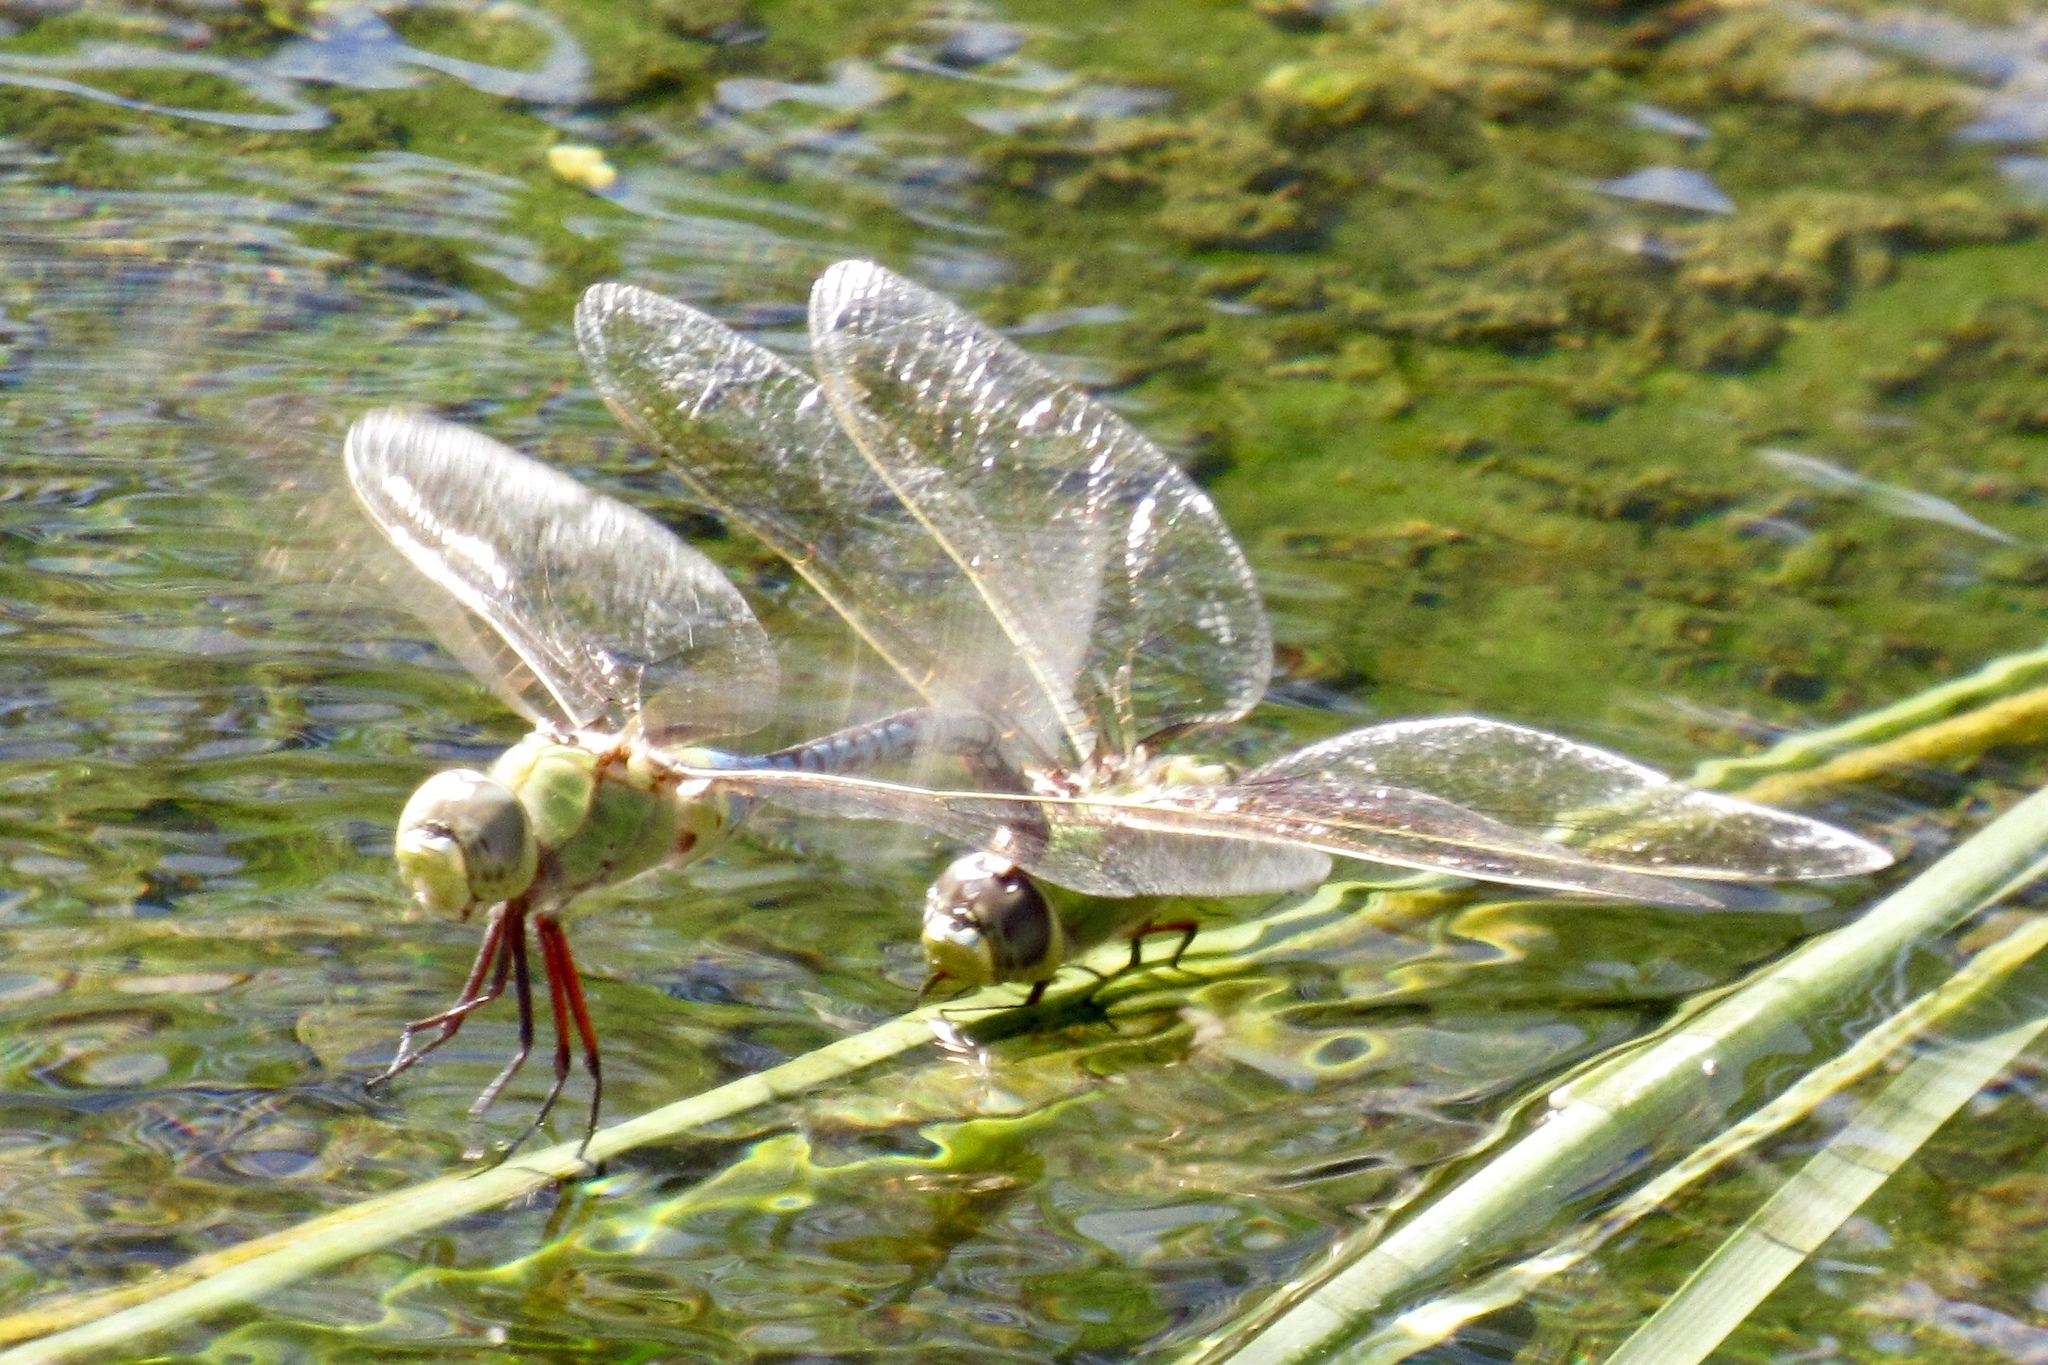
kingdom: Animalia
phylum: Arthropoda
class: Insecta
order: Odonata
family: Aeshnidae
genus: Anax
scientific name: Anax junius
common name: Common green darner
